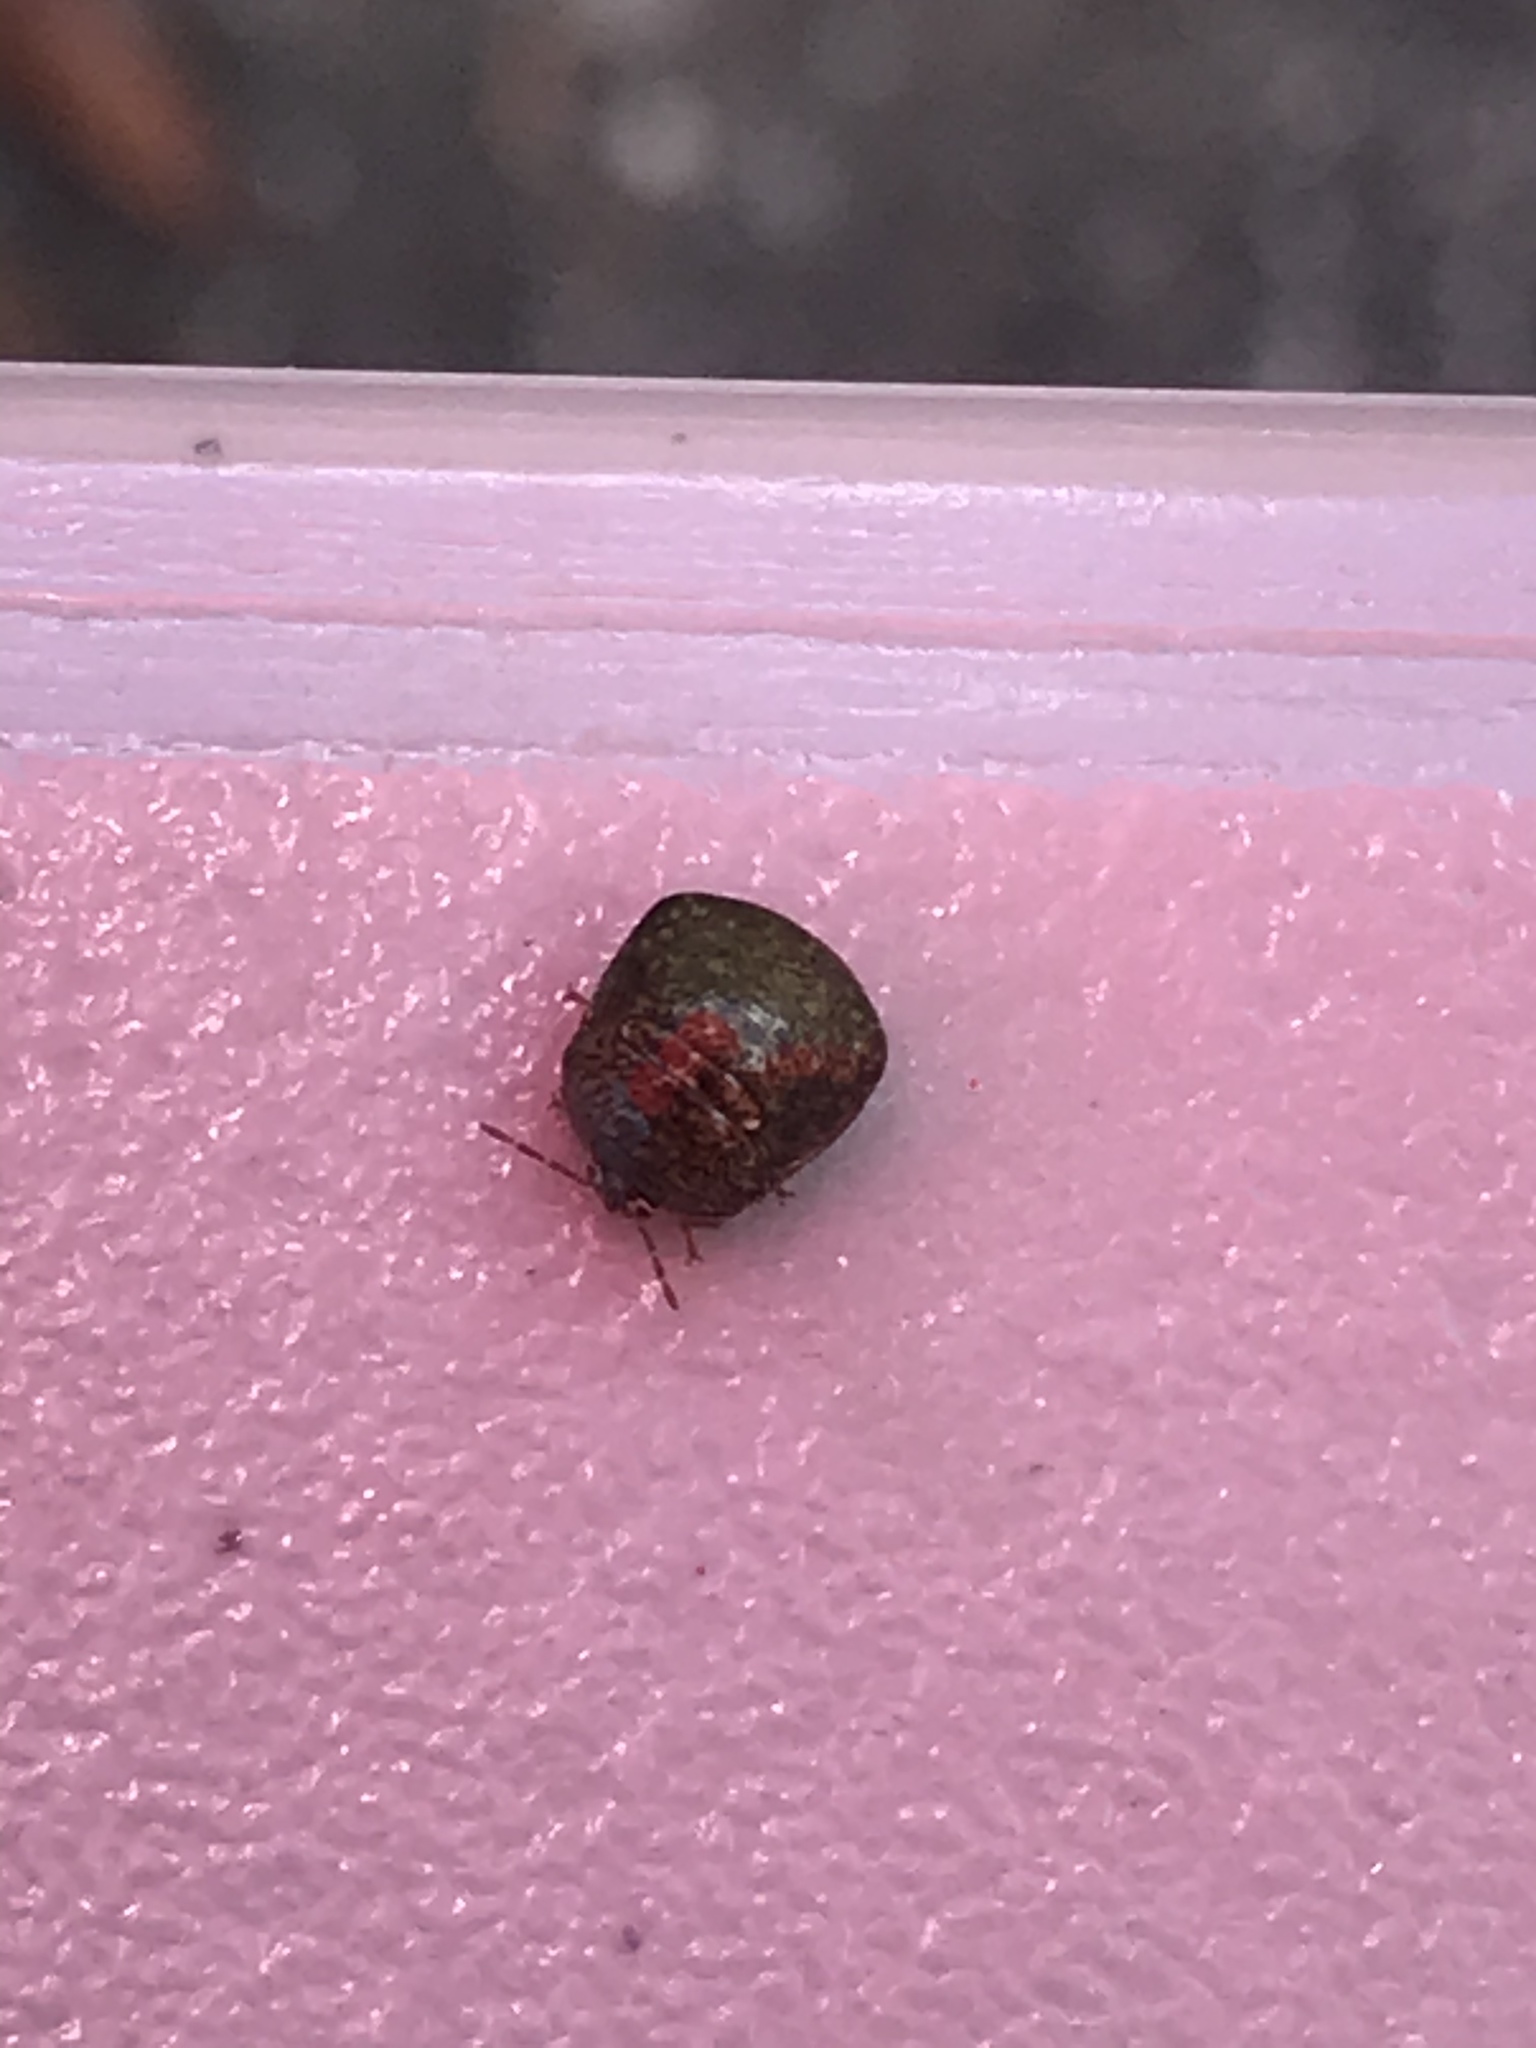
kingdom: Animalia
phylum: Arthropoda
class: Insecta
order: Hemiptera
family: Plataspidae
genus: Megacopta
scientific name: Megacopta cribraria
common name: Bean plataspid
